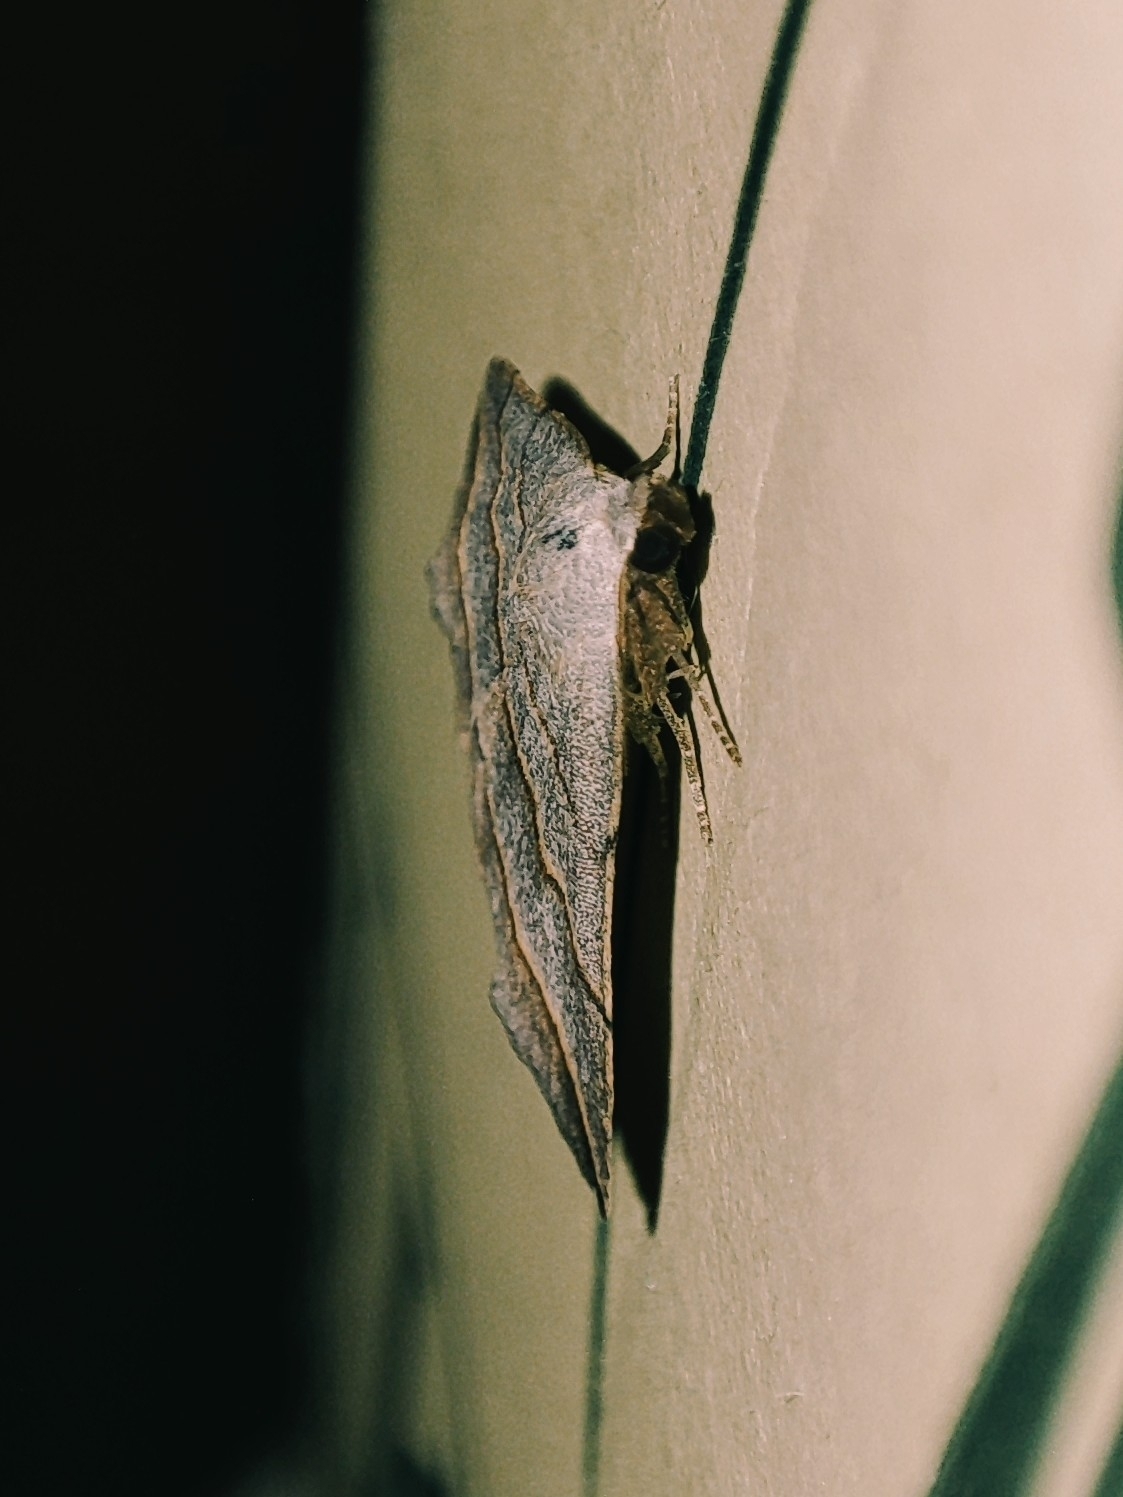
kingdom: Animalia
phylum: Arthropoda
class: Insecta
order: Lepidoptera
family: Erebidae
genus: Colobochyla
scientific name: Colobochyla salicalis
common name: Lesser belle
